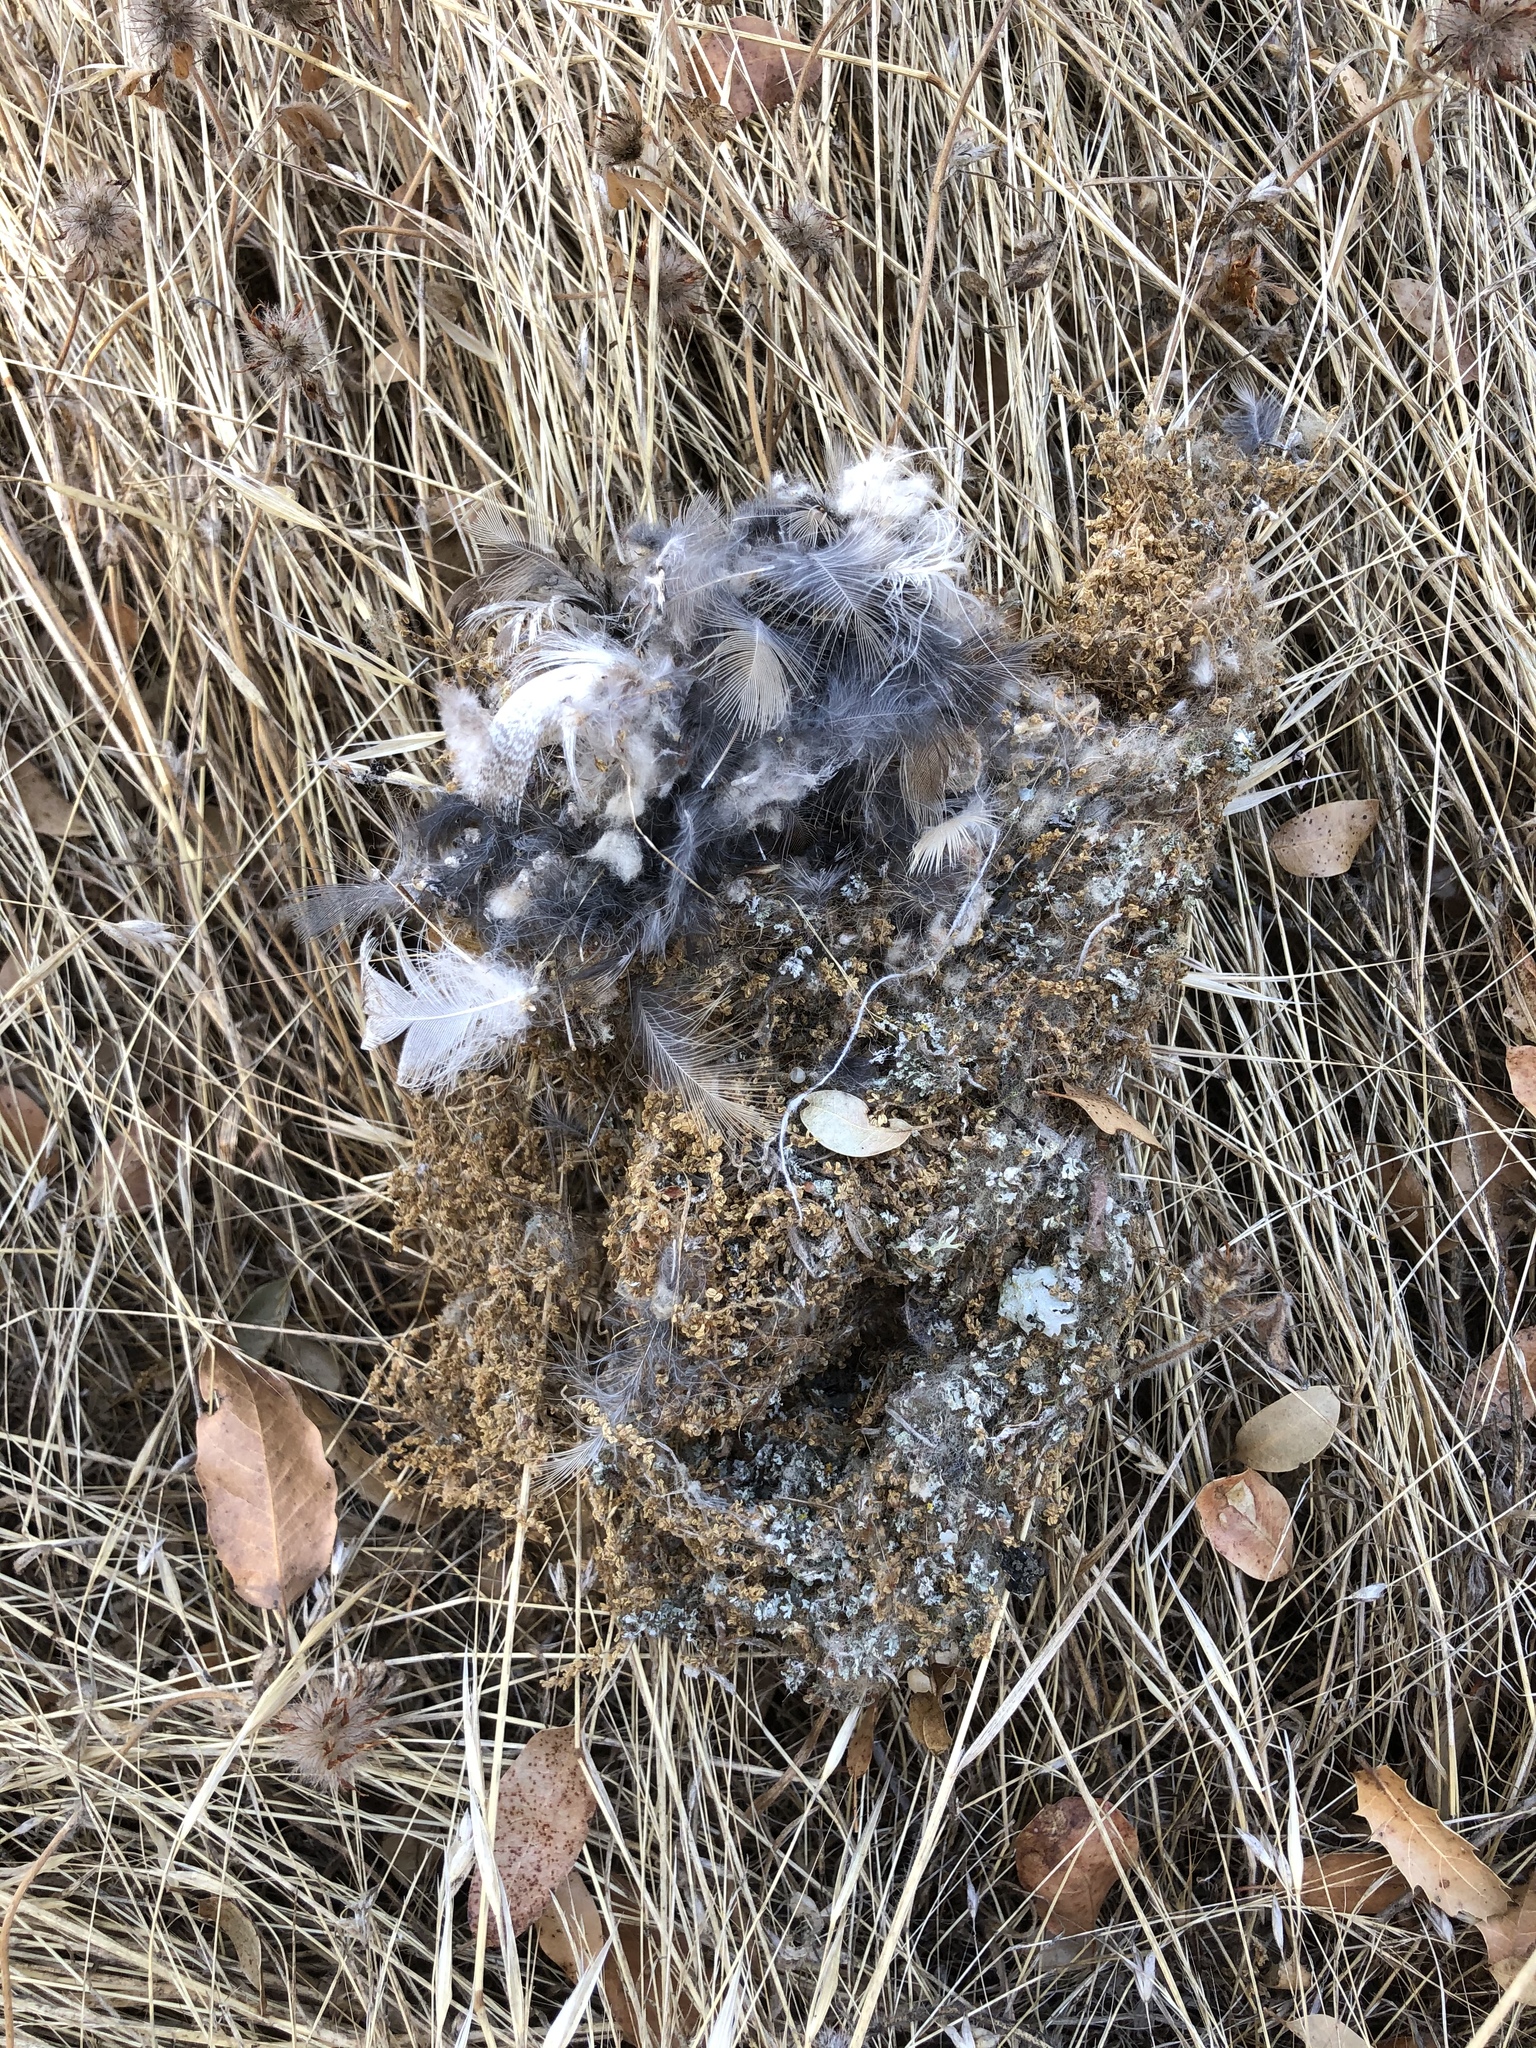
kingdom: Animalia
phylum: Chordata
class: Aves
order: Passeriformes
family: Aegithalidae
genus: Psaltriparus
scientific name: Psaltriparus minimus
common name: American bushtit
